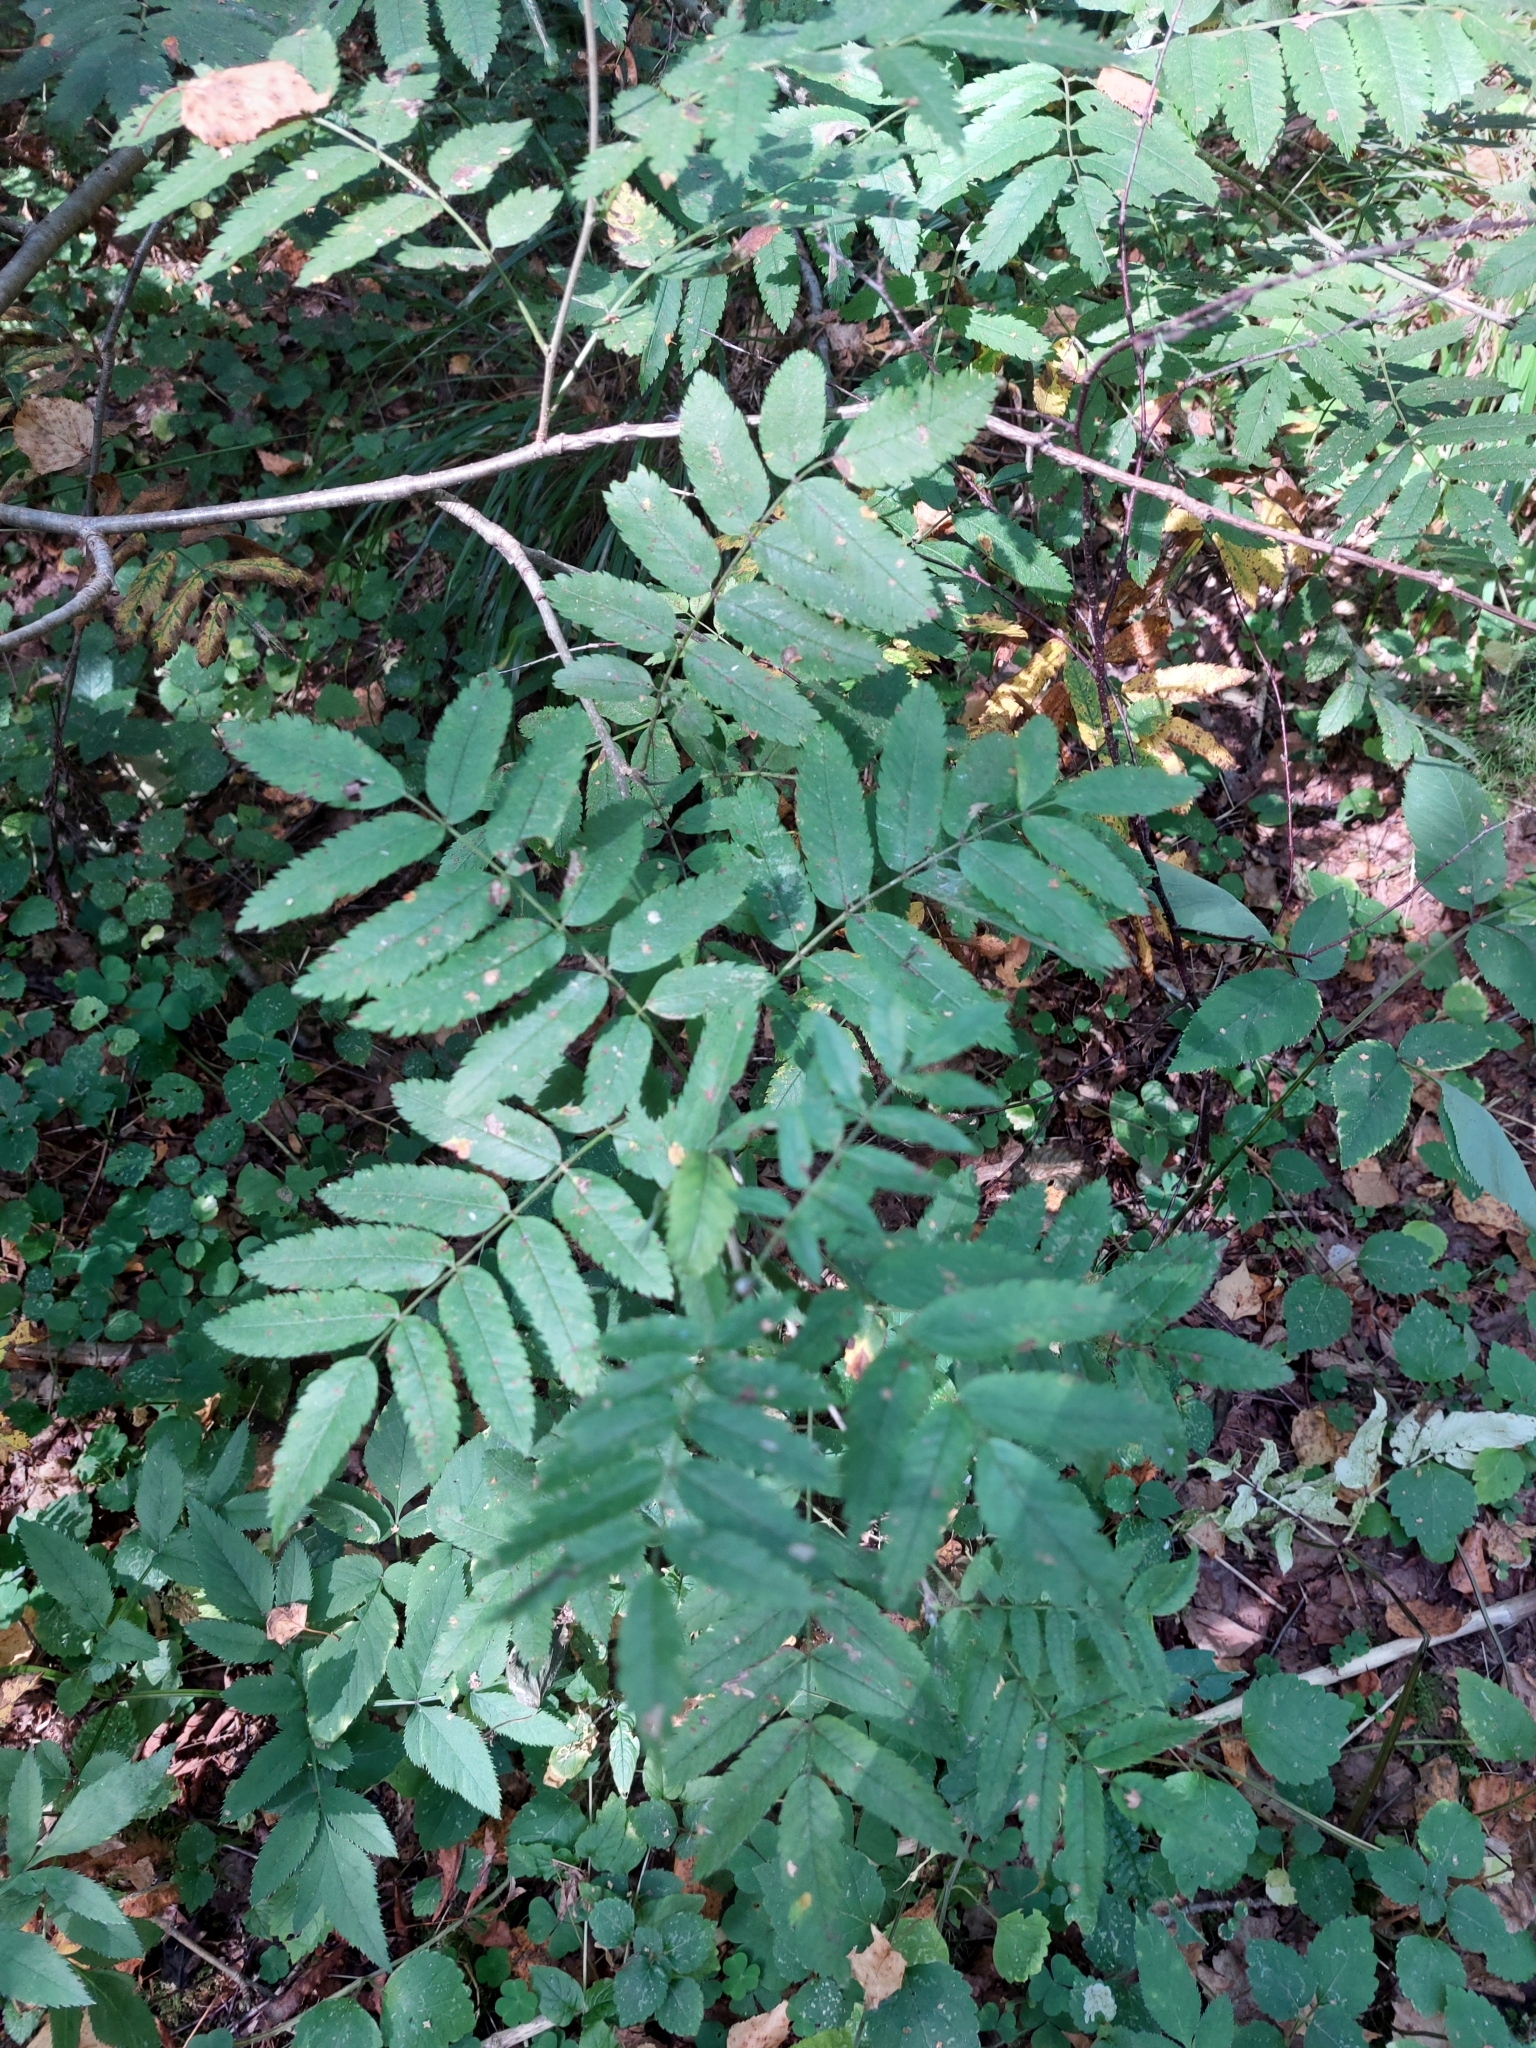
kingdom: Plantae
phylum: Tracheophyta
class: Magnoliopsida
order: Rosales
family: Rosaceae
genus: Sorbus
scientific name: Sorbus aucuparia
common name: Rowan
